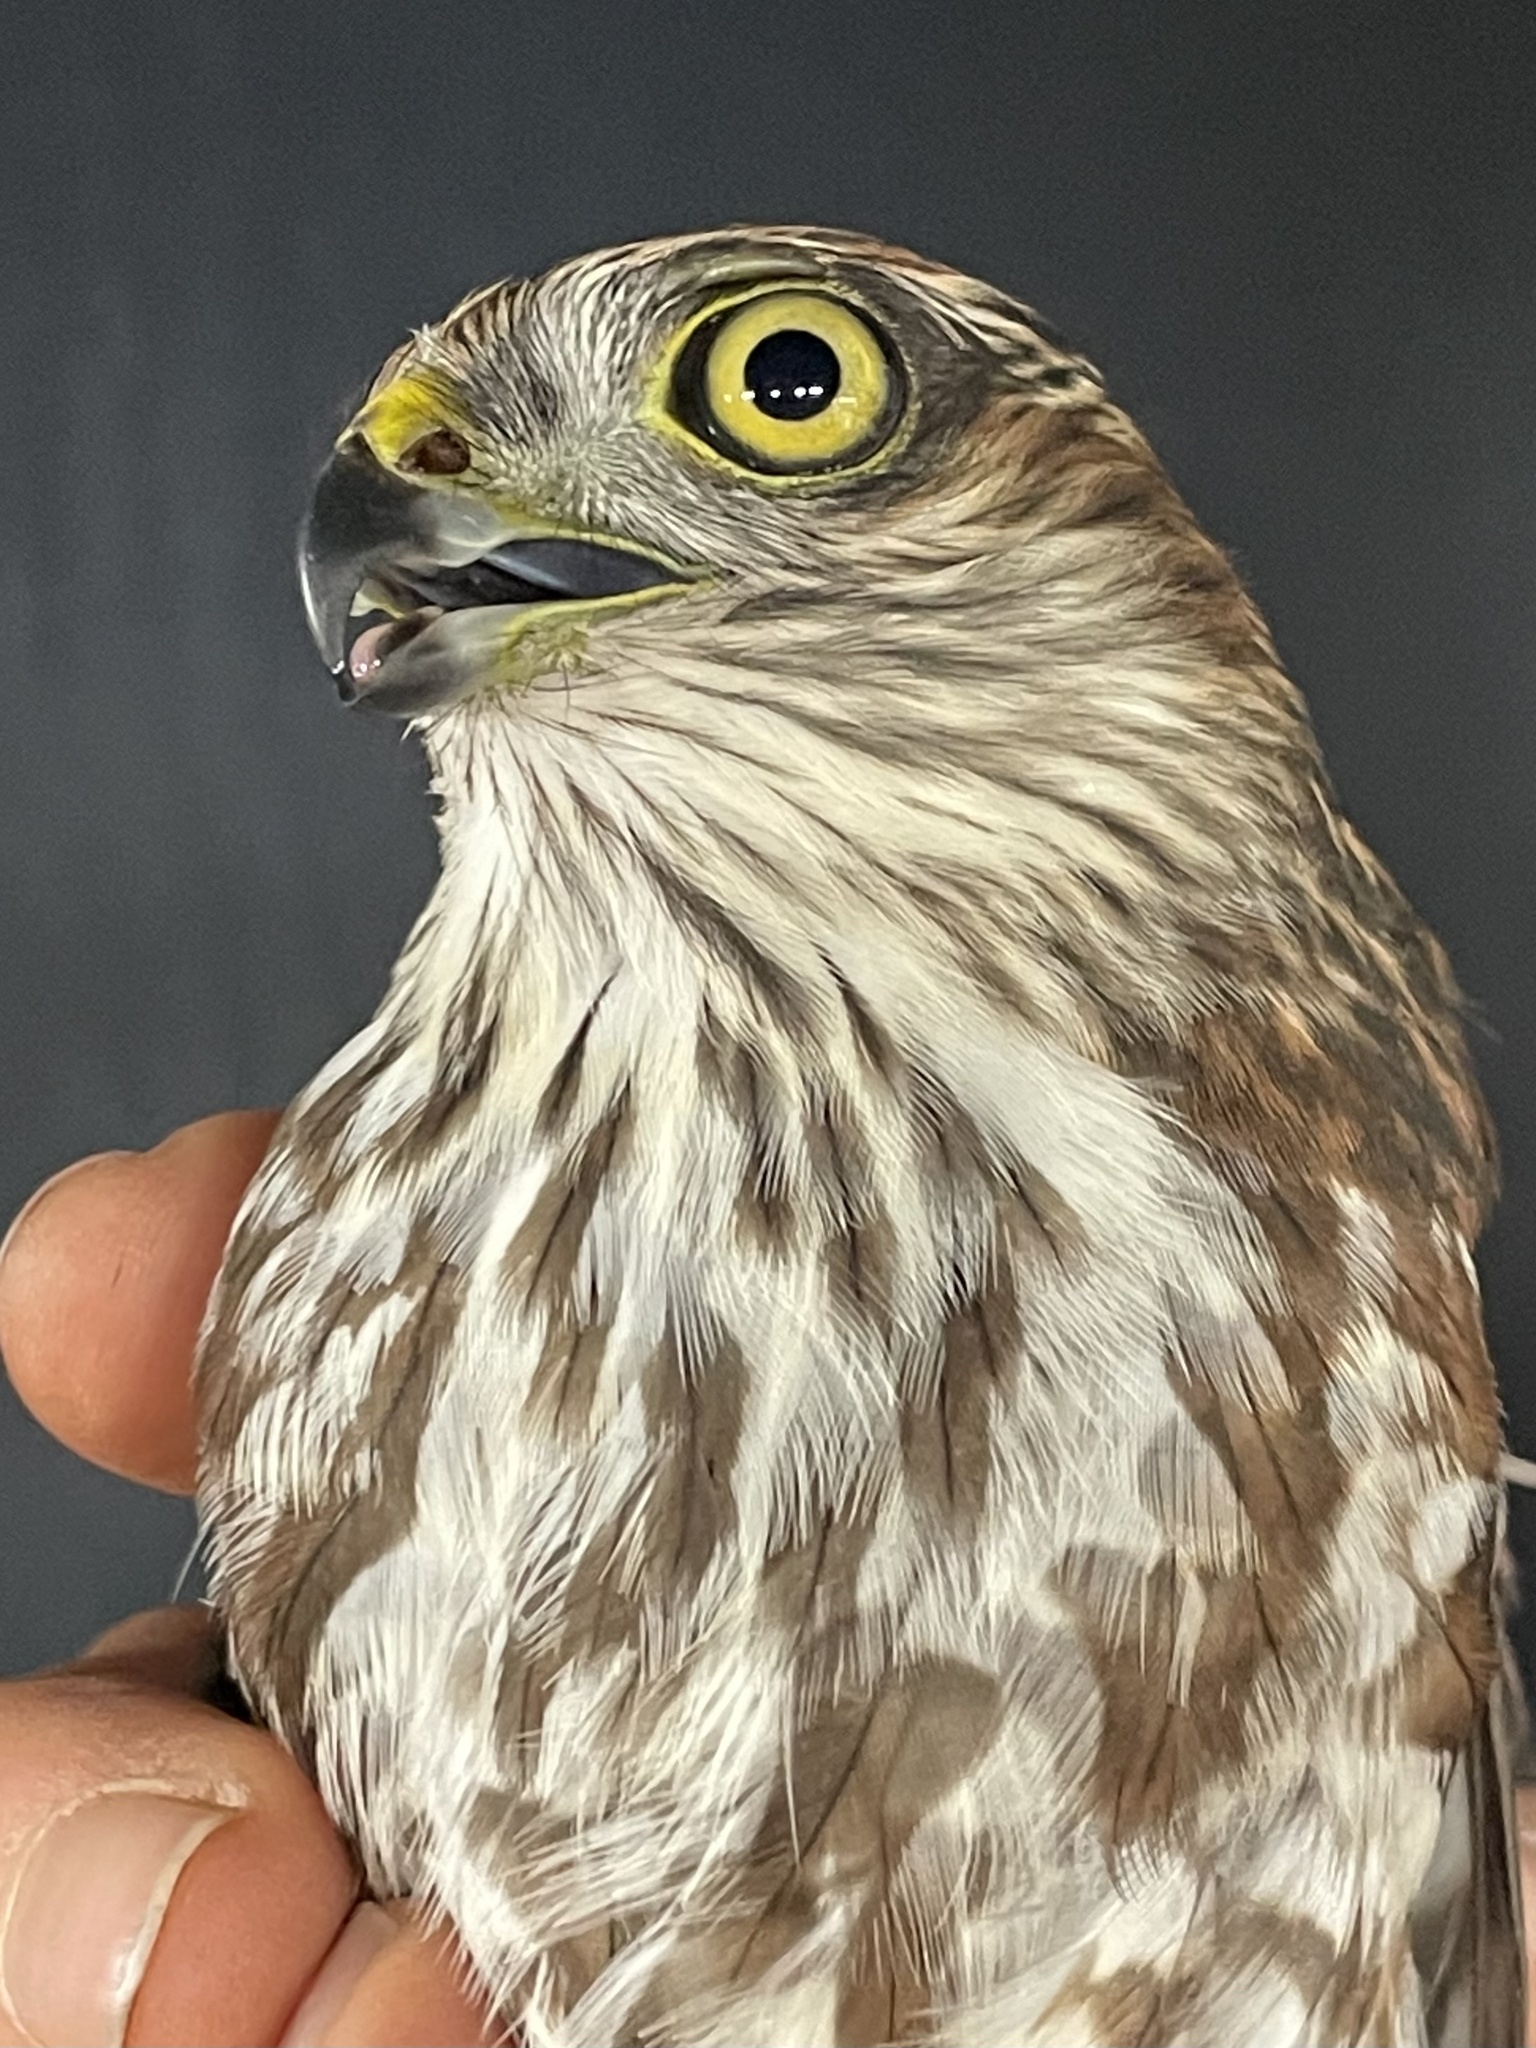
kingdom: Animalia
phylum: Chordata
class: Aves
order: Accipitriformes
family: Accipitridae
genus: Accipiter
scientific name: Accipiter striatus
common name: Sharp-shinned hawk
